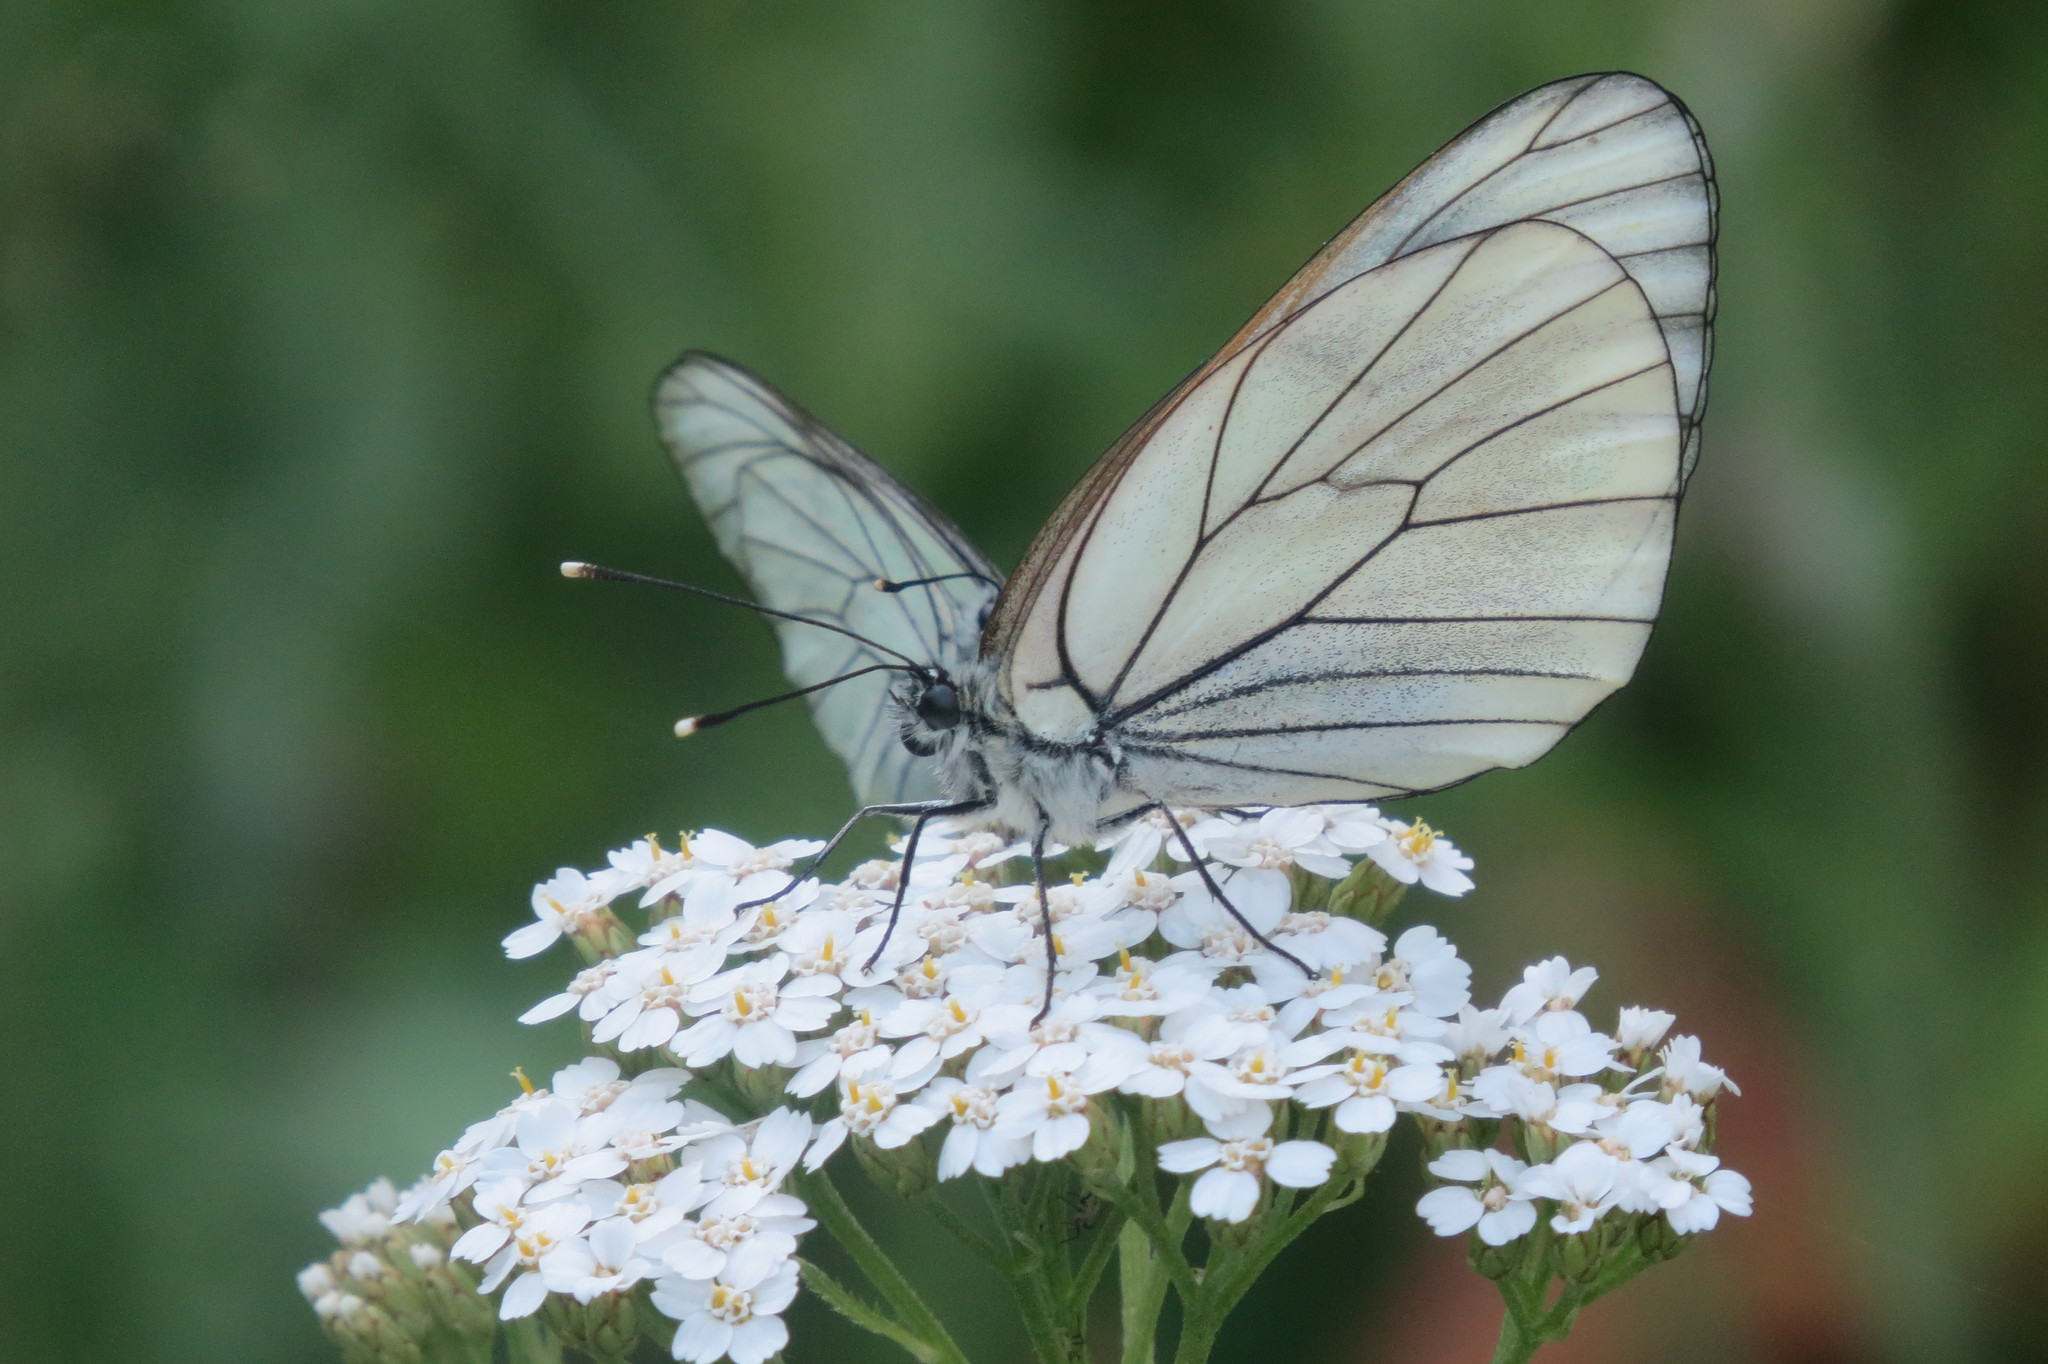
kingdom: Animalia
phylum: Arthropoda
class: Insecta
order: Lepidoptera
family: Pieridae
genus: Aporia
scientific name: Aporia crataegi
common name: Black-veined white
